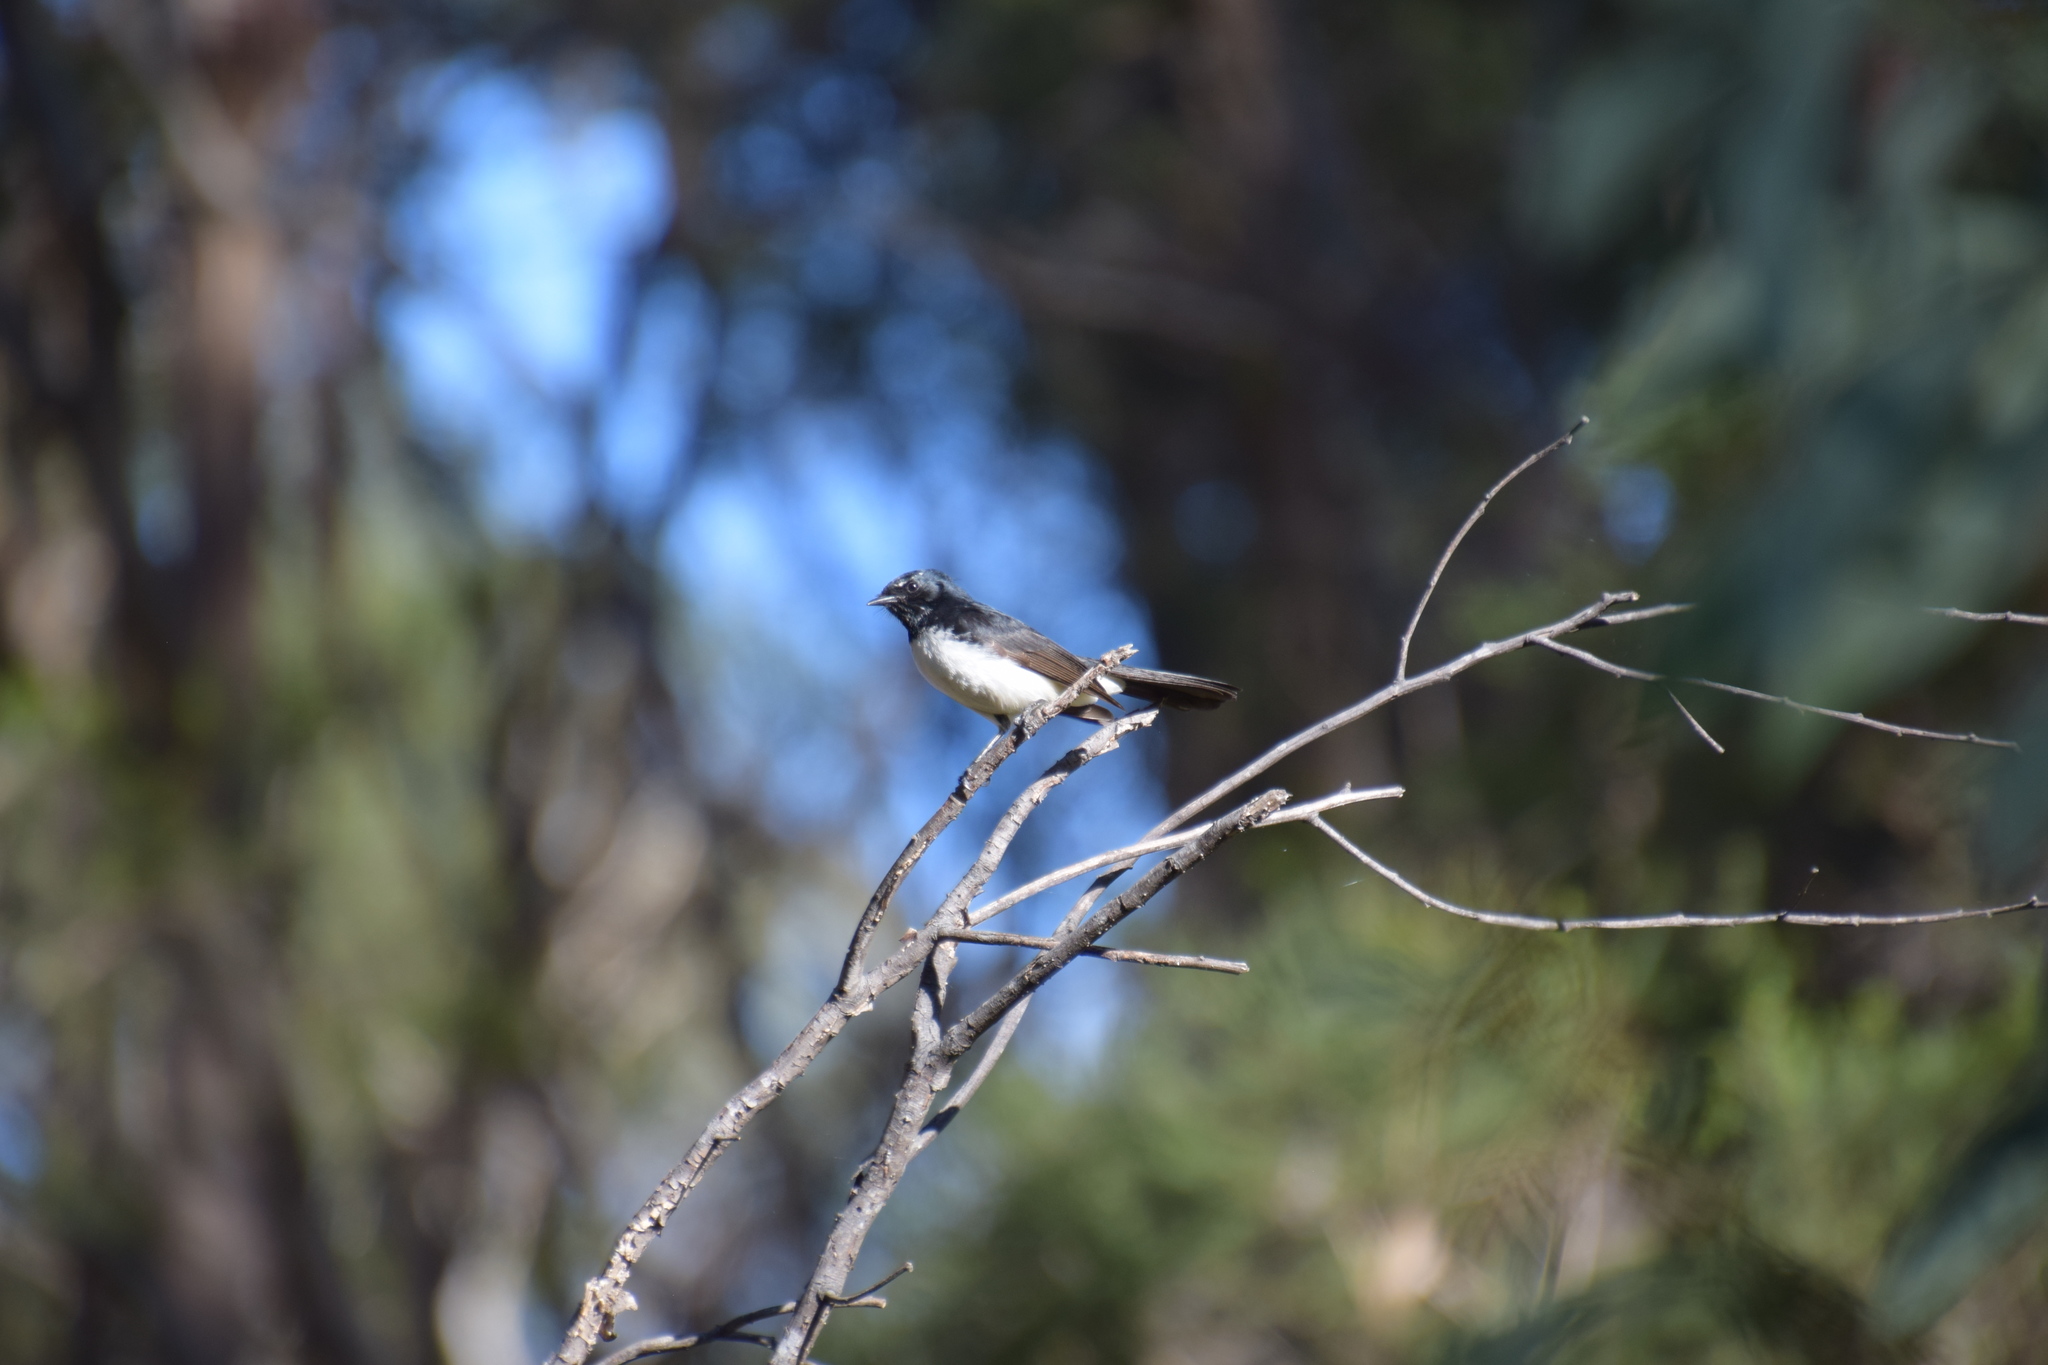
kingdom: Animalia
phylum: Chordata
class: Aves
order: Passeriformes
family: Rhipiduridae
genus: Rhipidura
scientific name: Rhipidura leucophrys
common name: Willie wagtail
